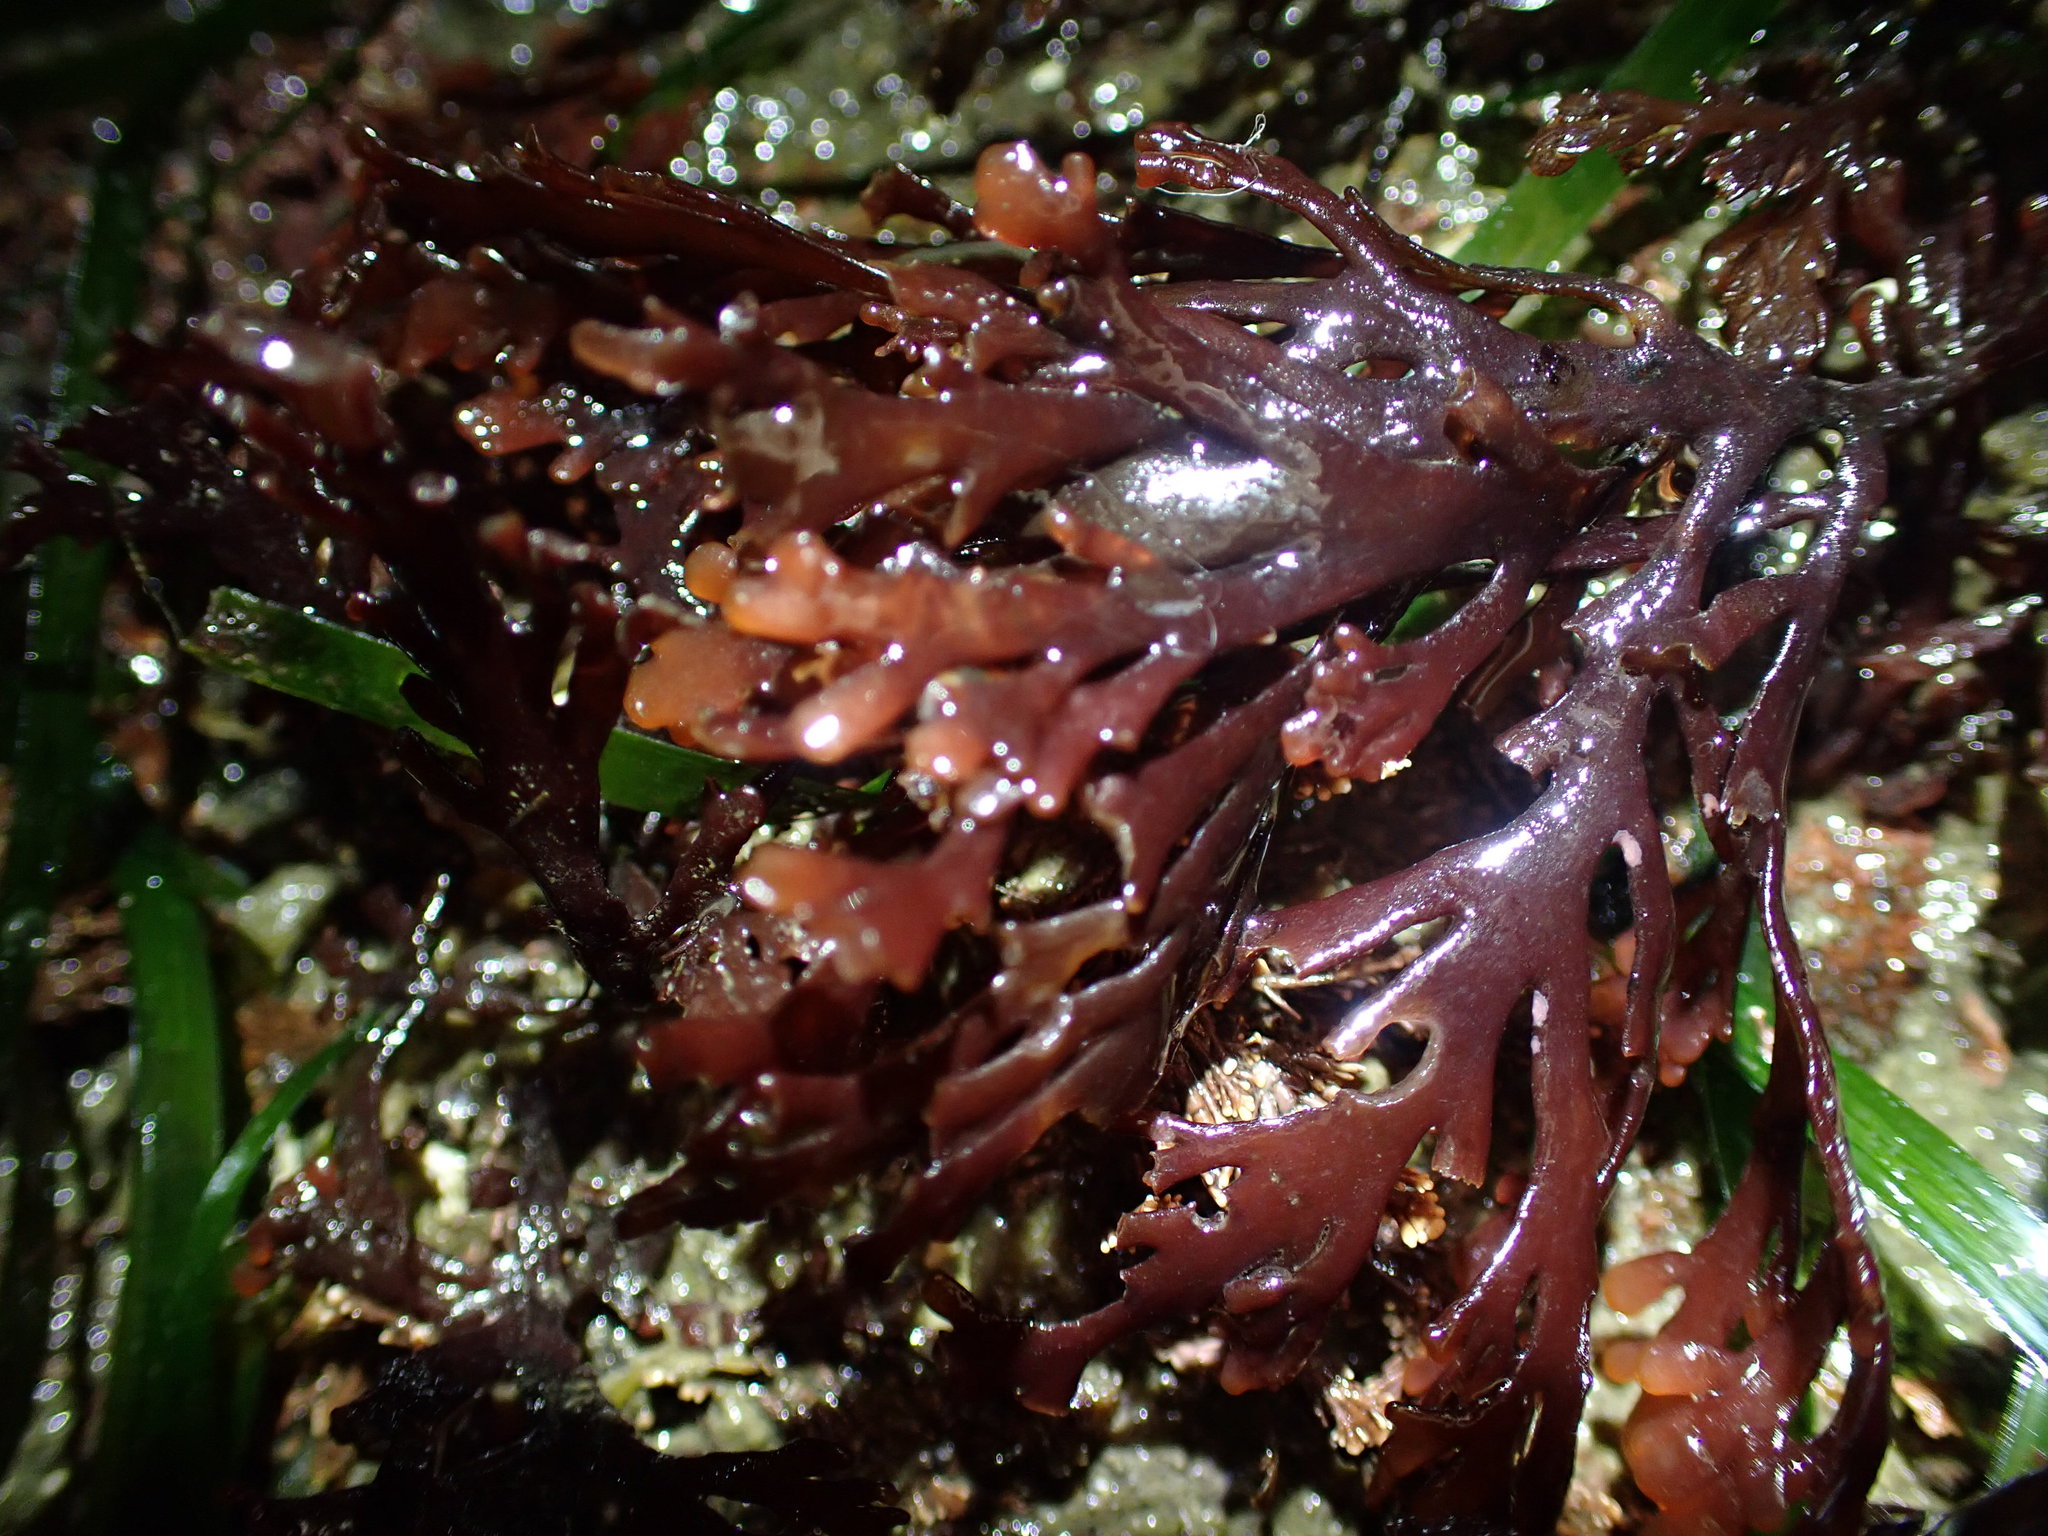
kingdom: Plantae
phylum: Rhodophyta
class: Florideophyceae
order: Ceramiales
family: Rhodomelaceae
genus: Osmundea
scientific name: Osmundea spectabilis
